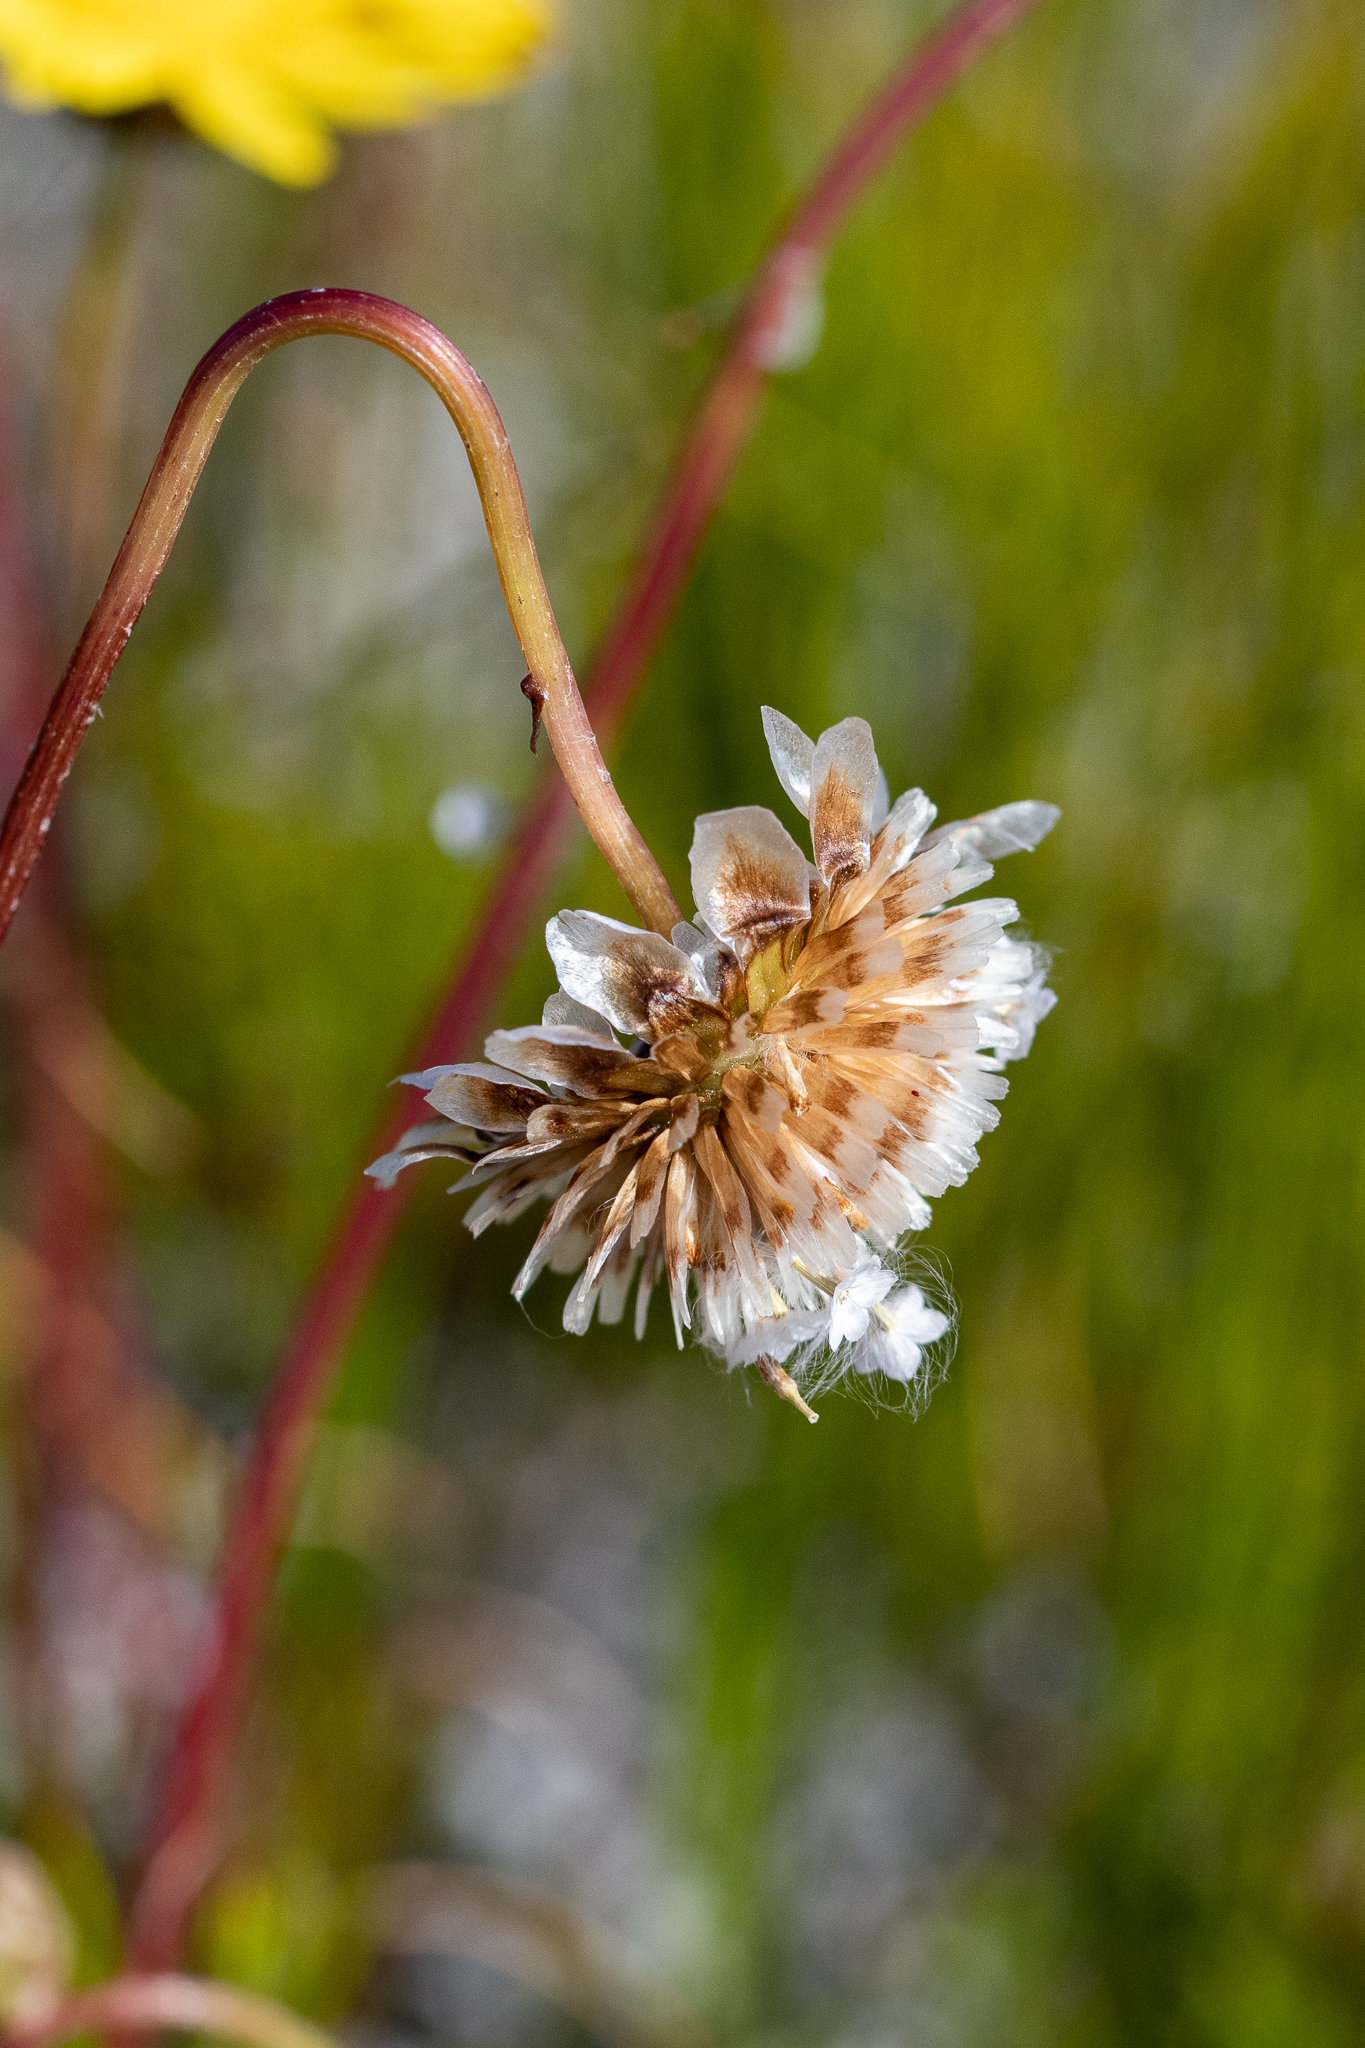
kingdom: Plantae
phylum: Tracheophyta
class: Magnoliopsida
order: Asterales
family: Asteraceae
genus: Ursinia
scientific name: Ursinia paleacea
